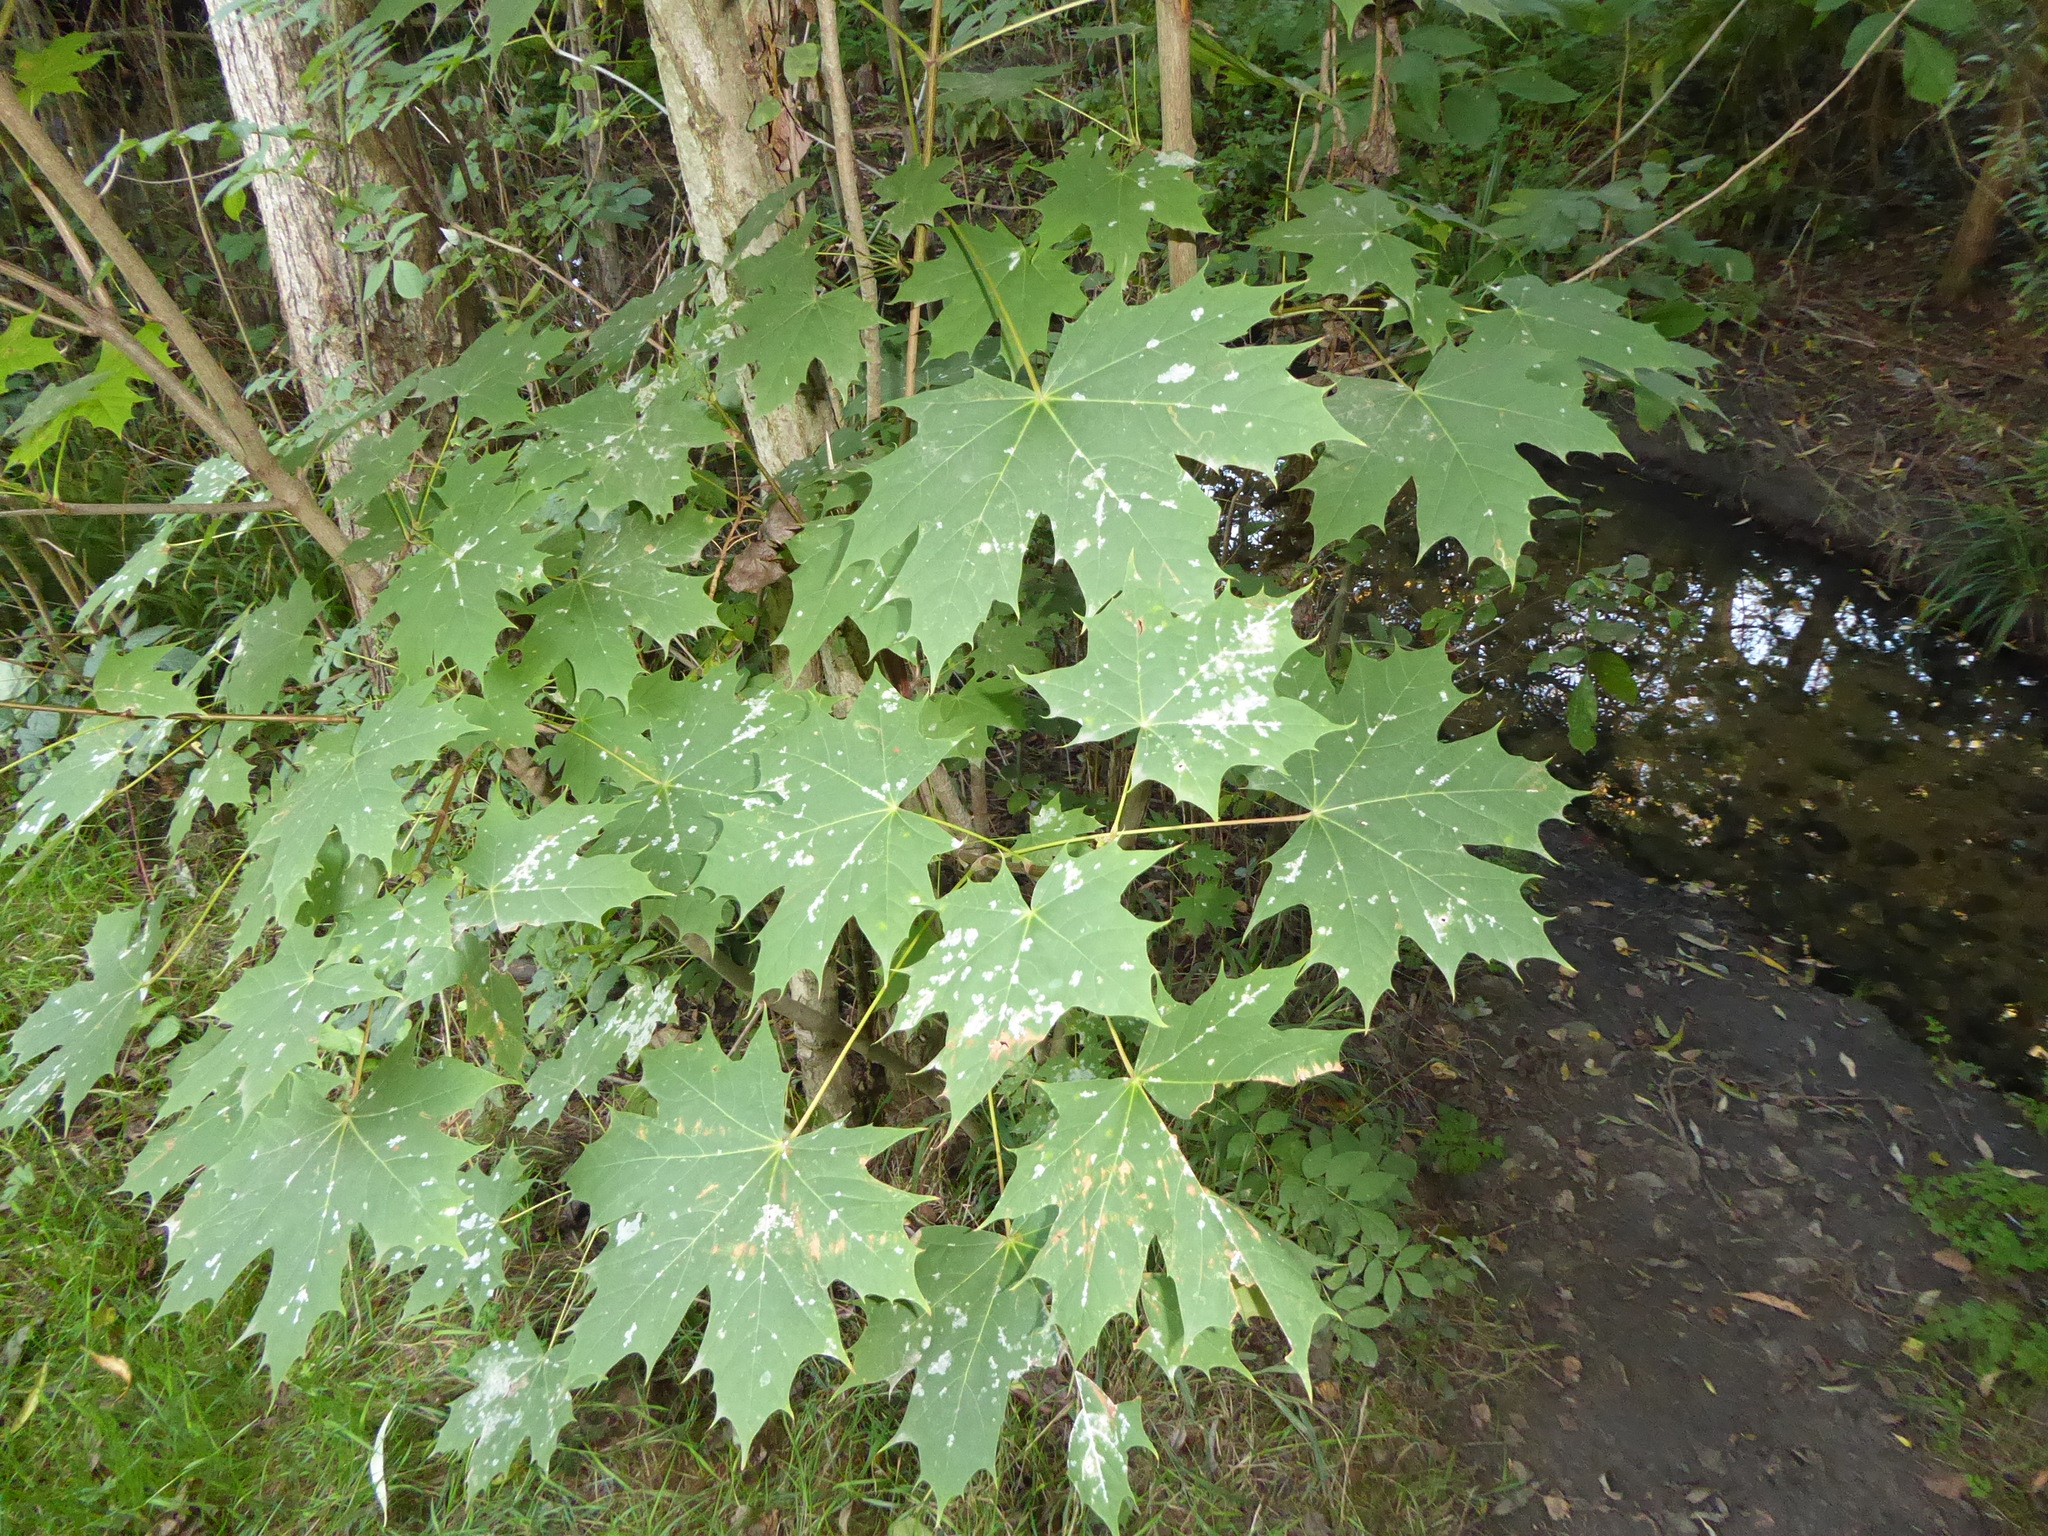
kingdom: Plantae
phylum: Tracheophyta
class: Magnoliopsida
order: Sapindales
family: Sapindaceae
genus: Acer
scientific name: Acer platanoides
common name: Norway maple
